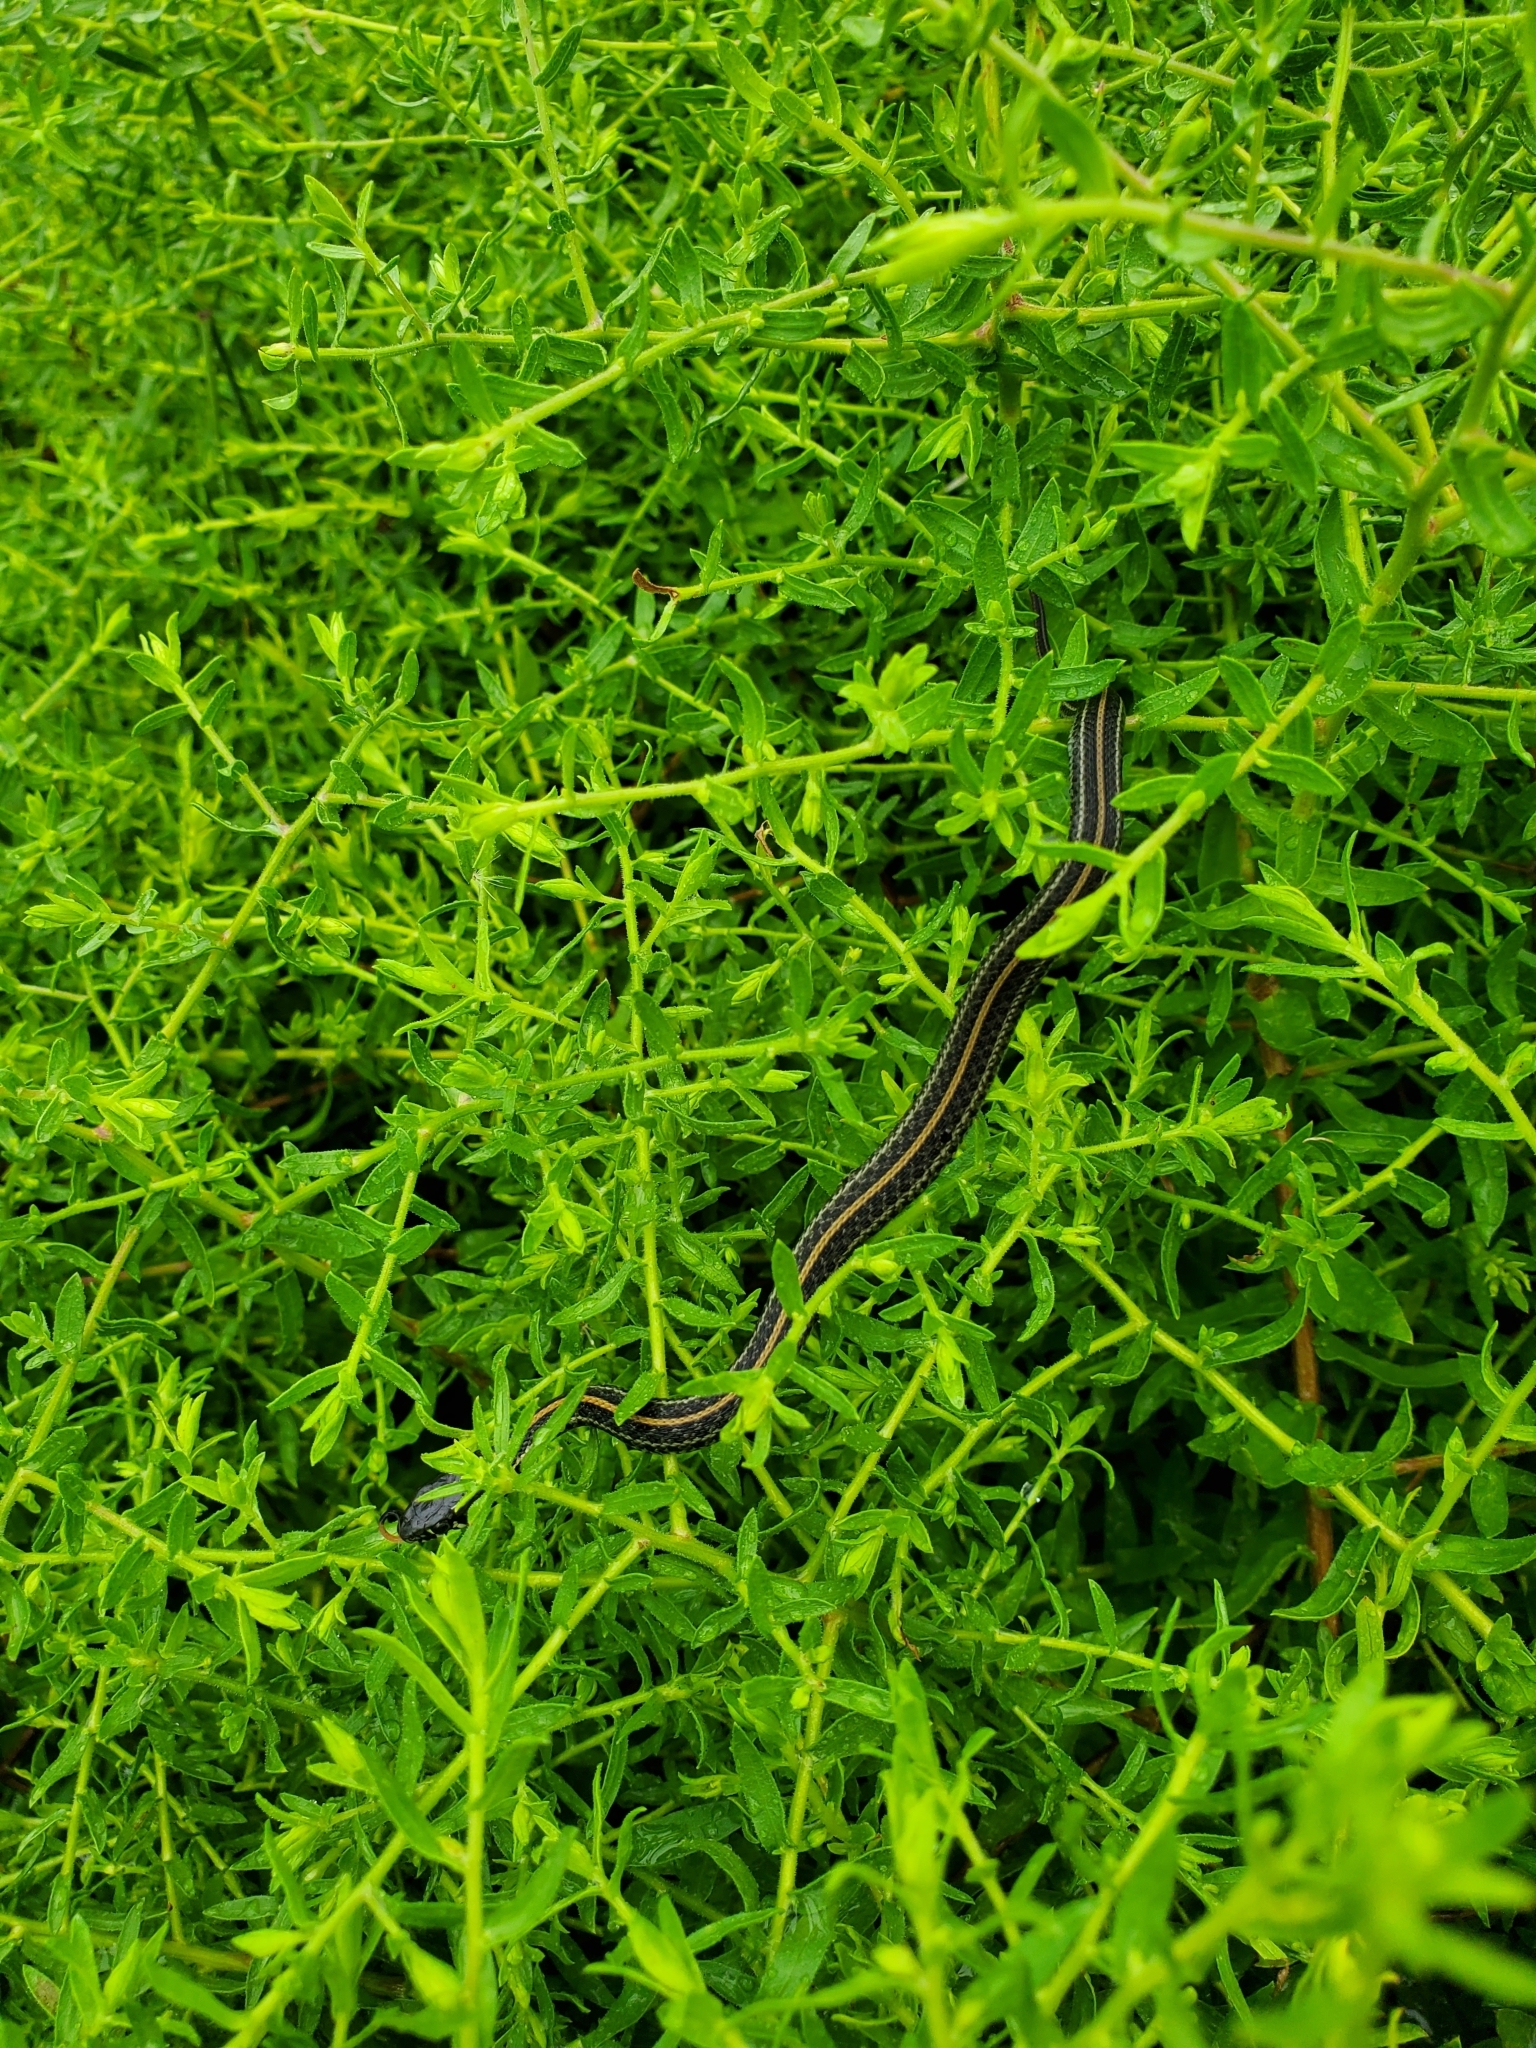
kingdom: Animalia
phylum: Chordata
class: Squamata
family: Colubridae
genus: Thamnophis
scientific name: Thamnophis radix
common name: Plains garter snake
